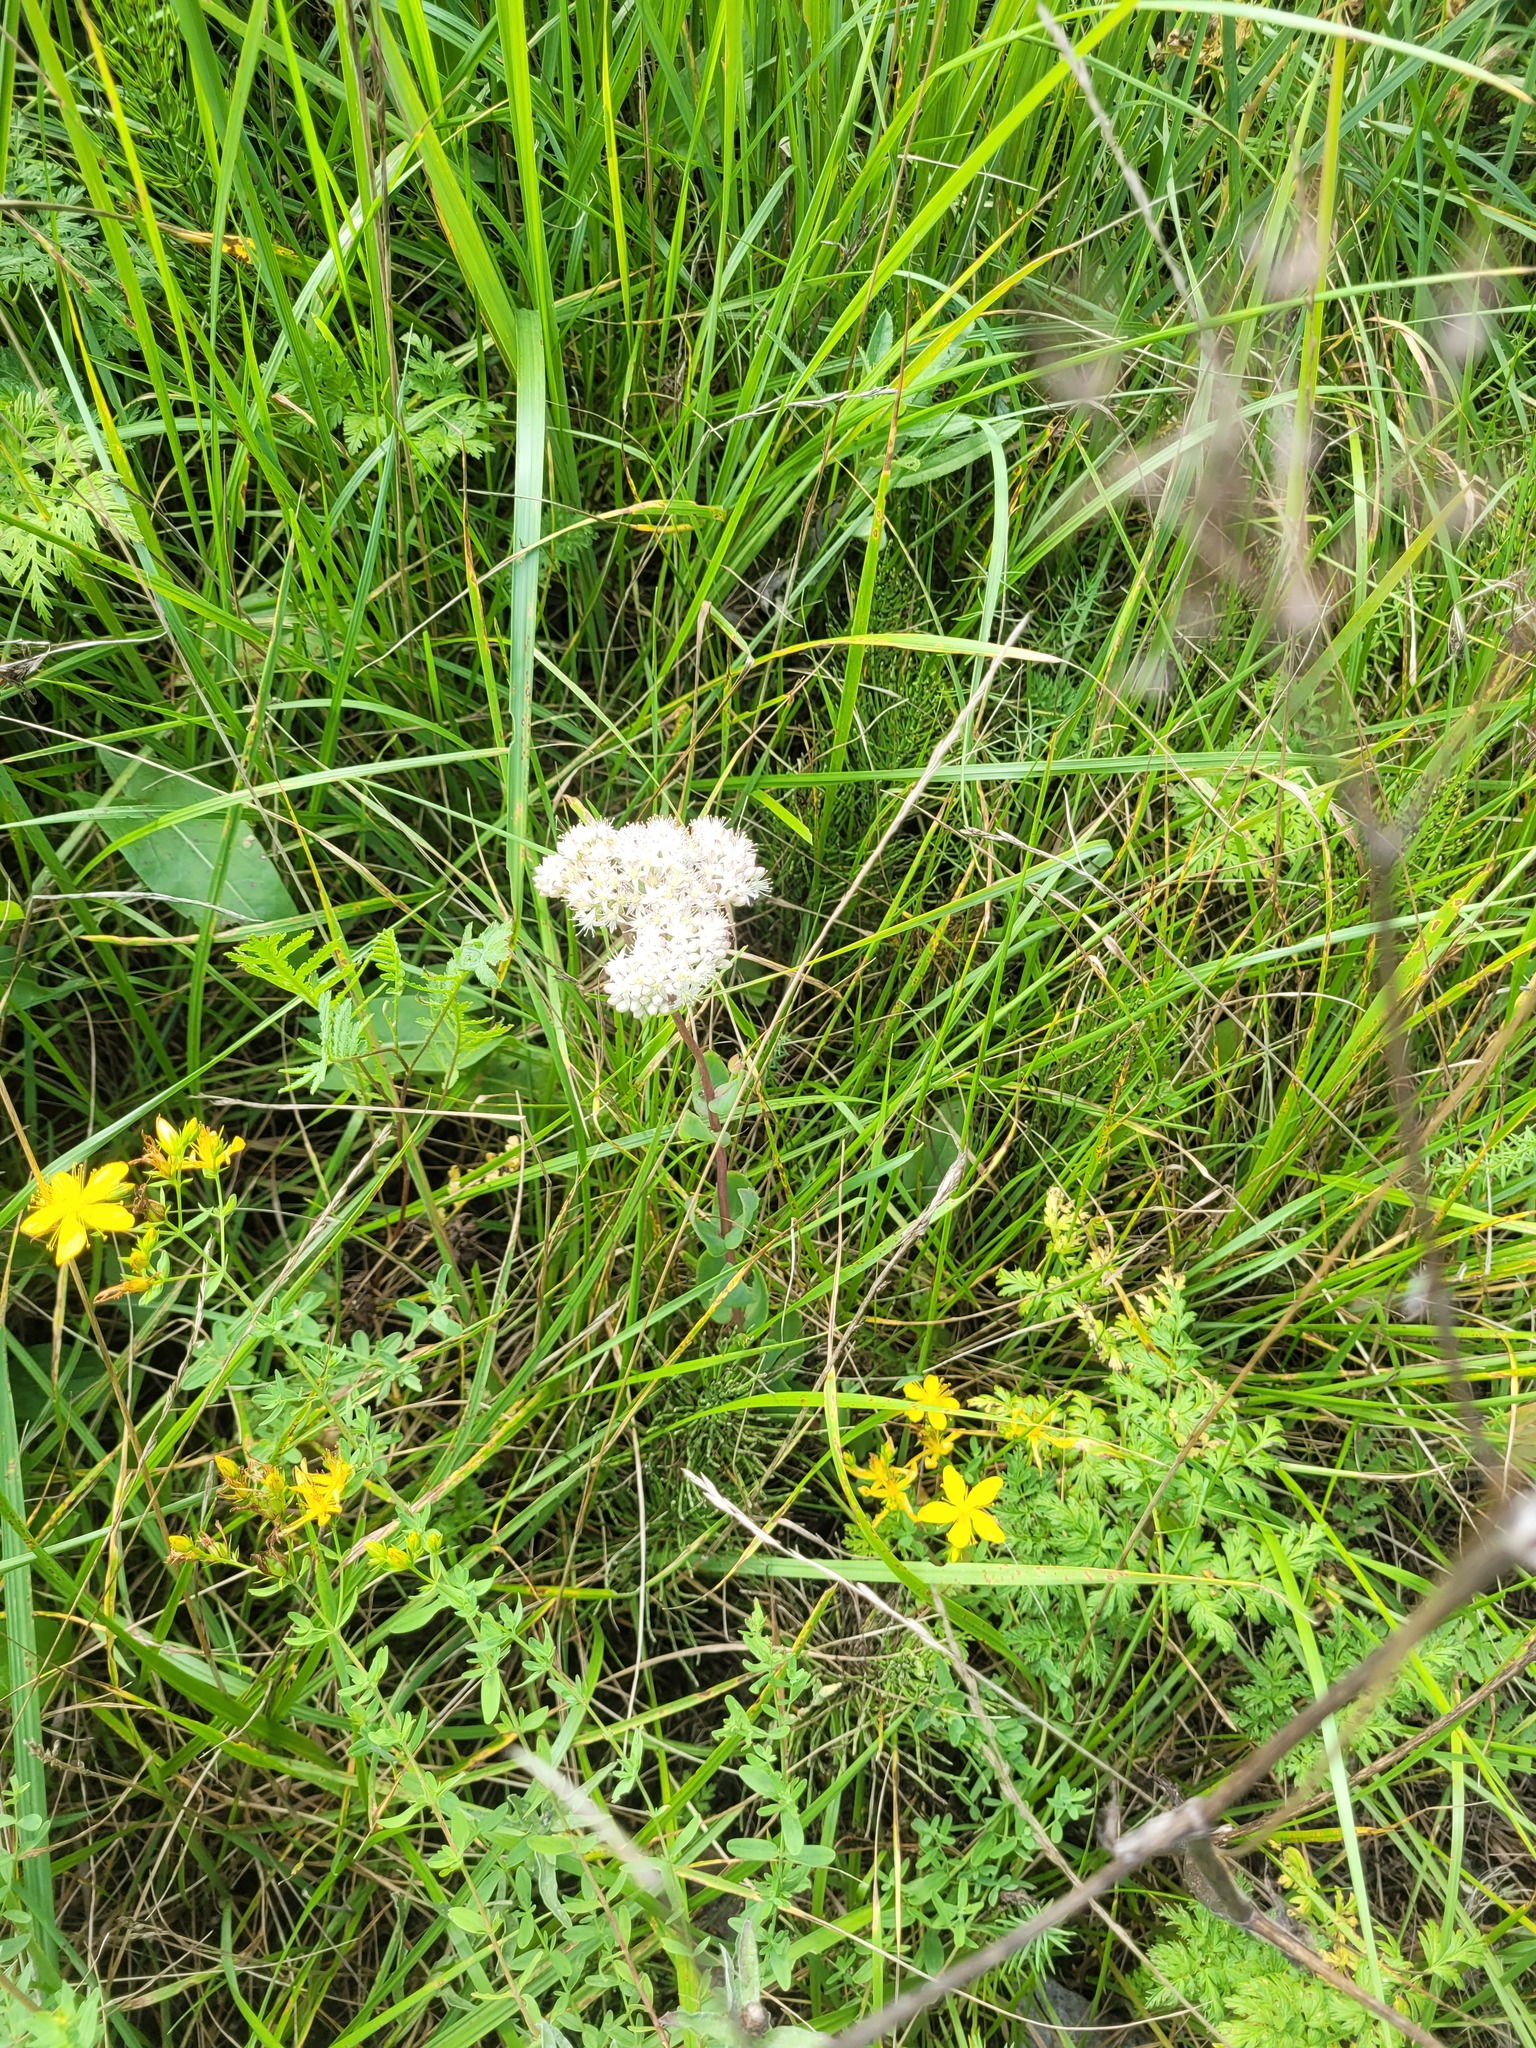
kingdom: Plantae
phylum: Tracheophyta
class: Magnoliopsida
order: Saxifragales
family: Crassulaceae
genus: Hylotelephium
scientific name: Hylotelephium maximum
